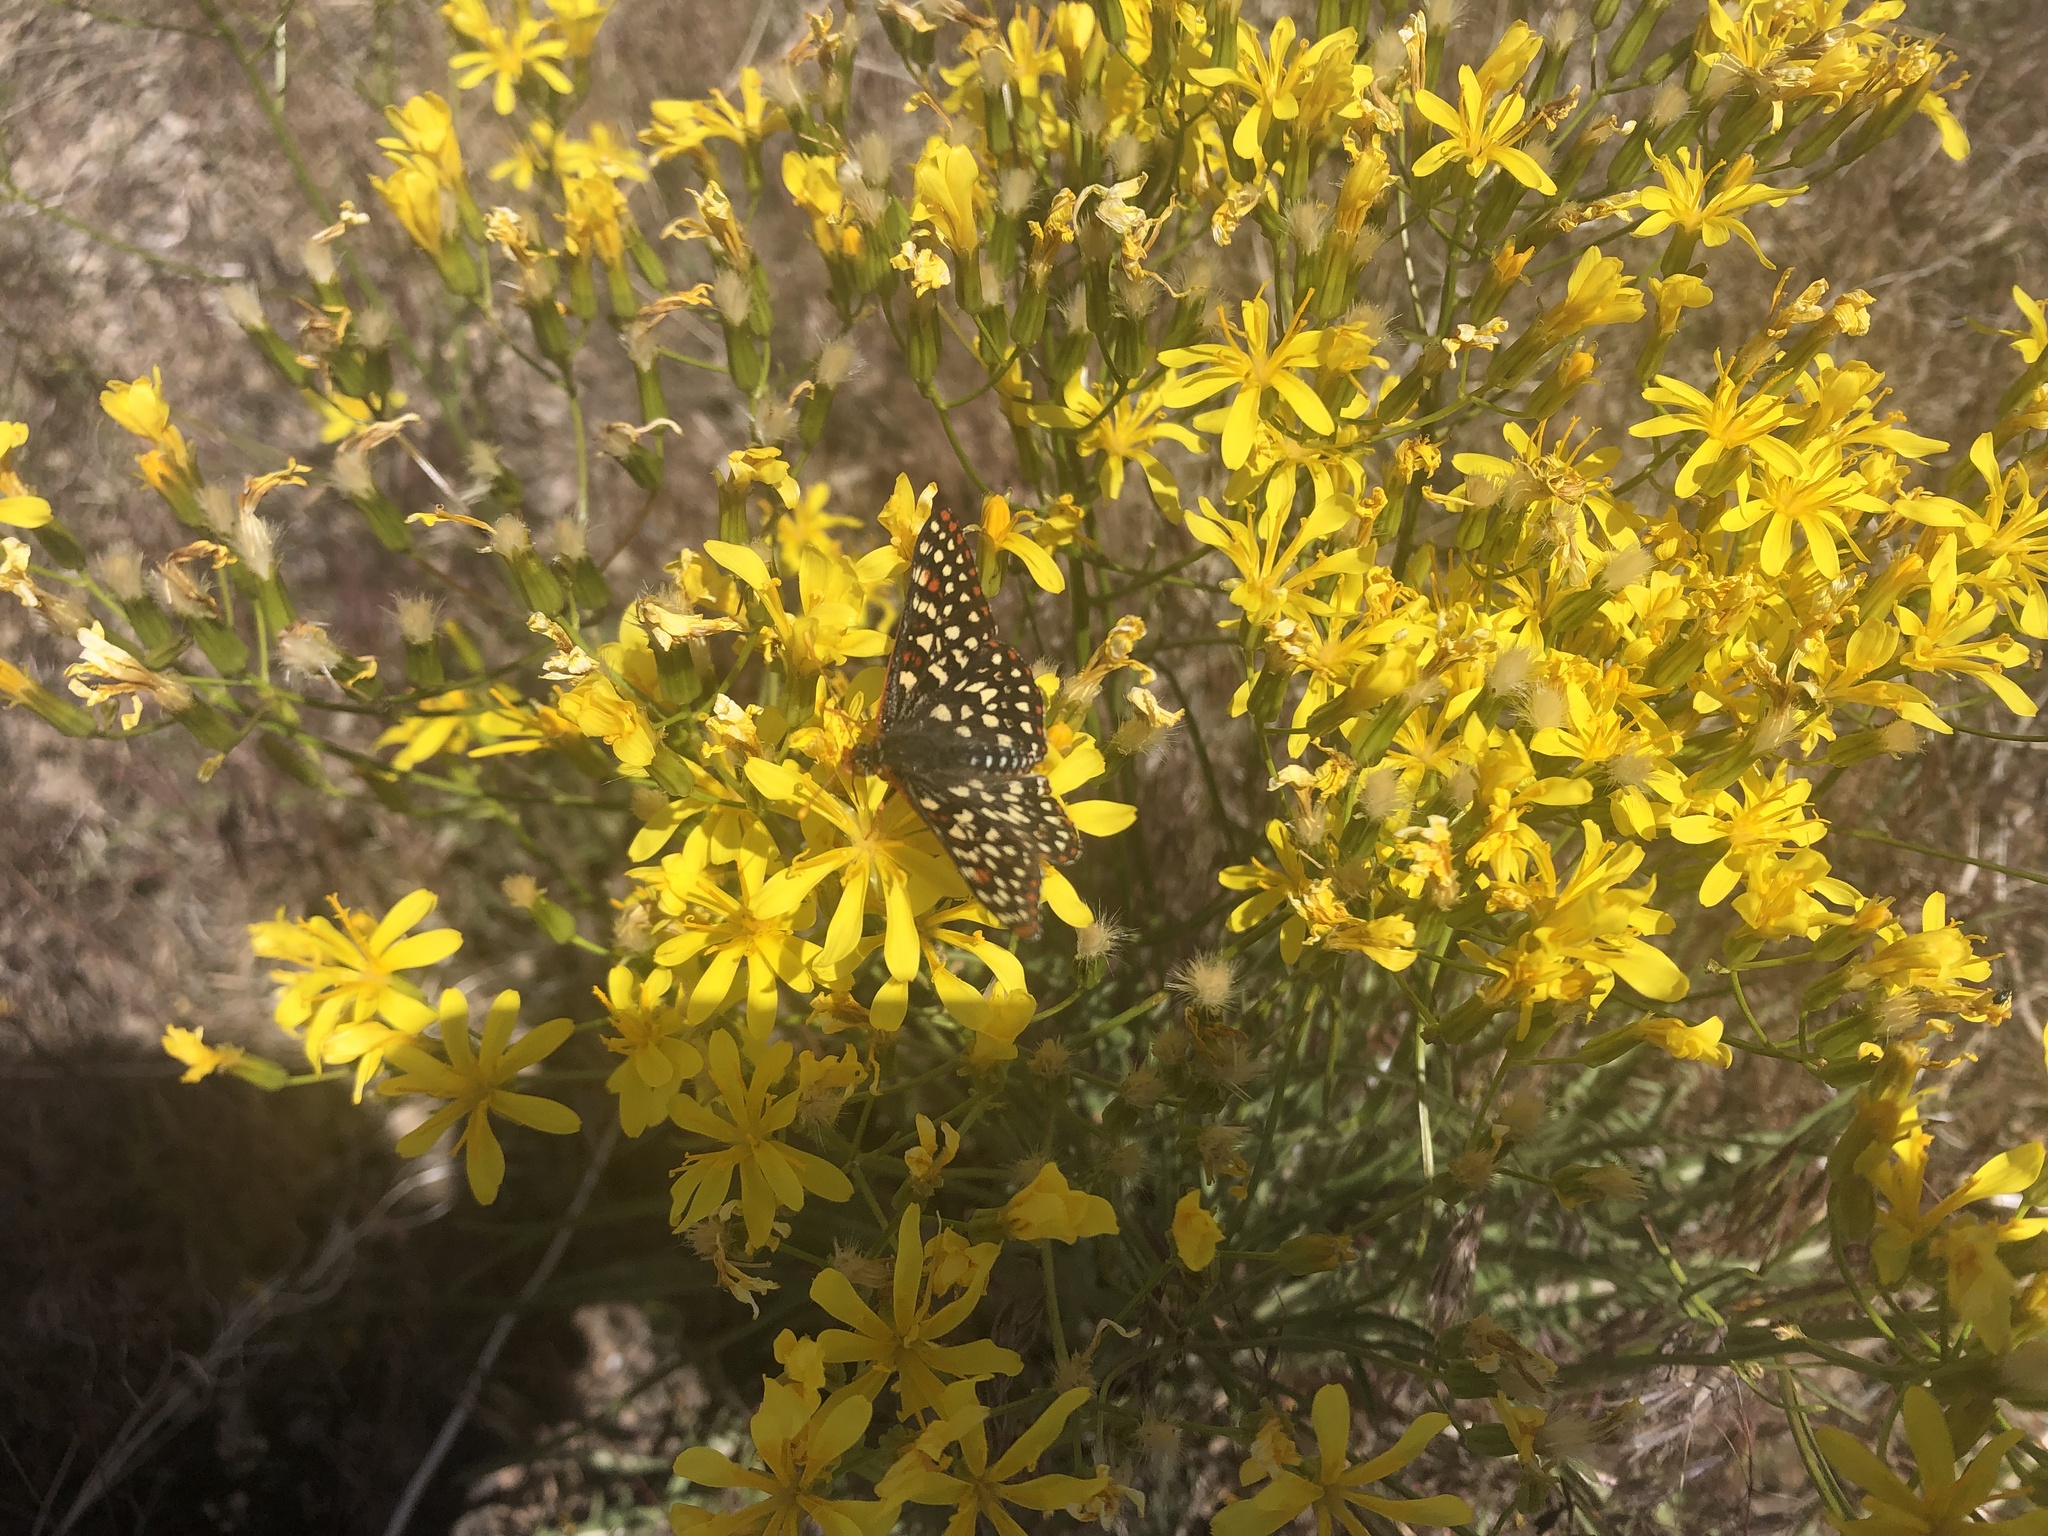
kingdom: Animalia
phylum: Arthropoda
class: Insecta
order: Lepidoptera
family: Nymphalidae
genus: Occidryas
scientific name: Occidryas chalcedona
